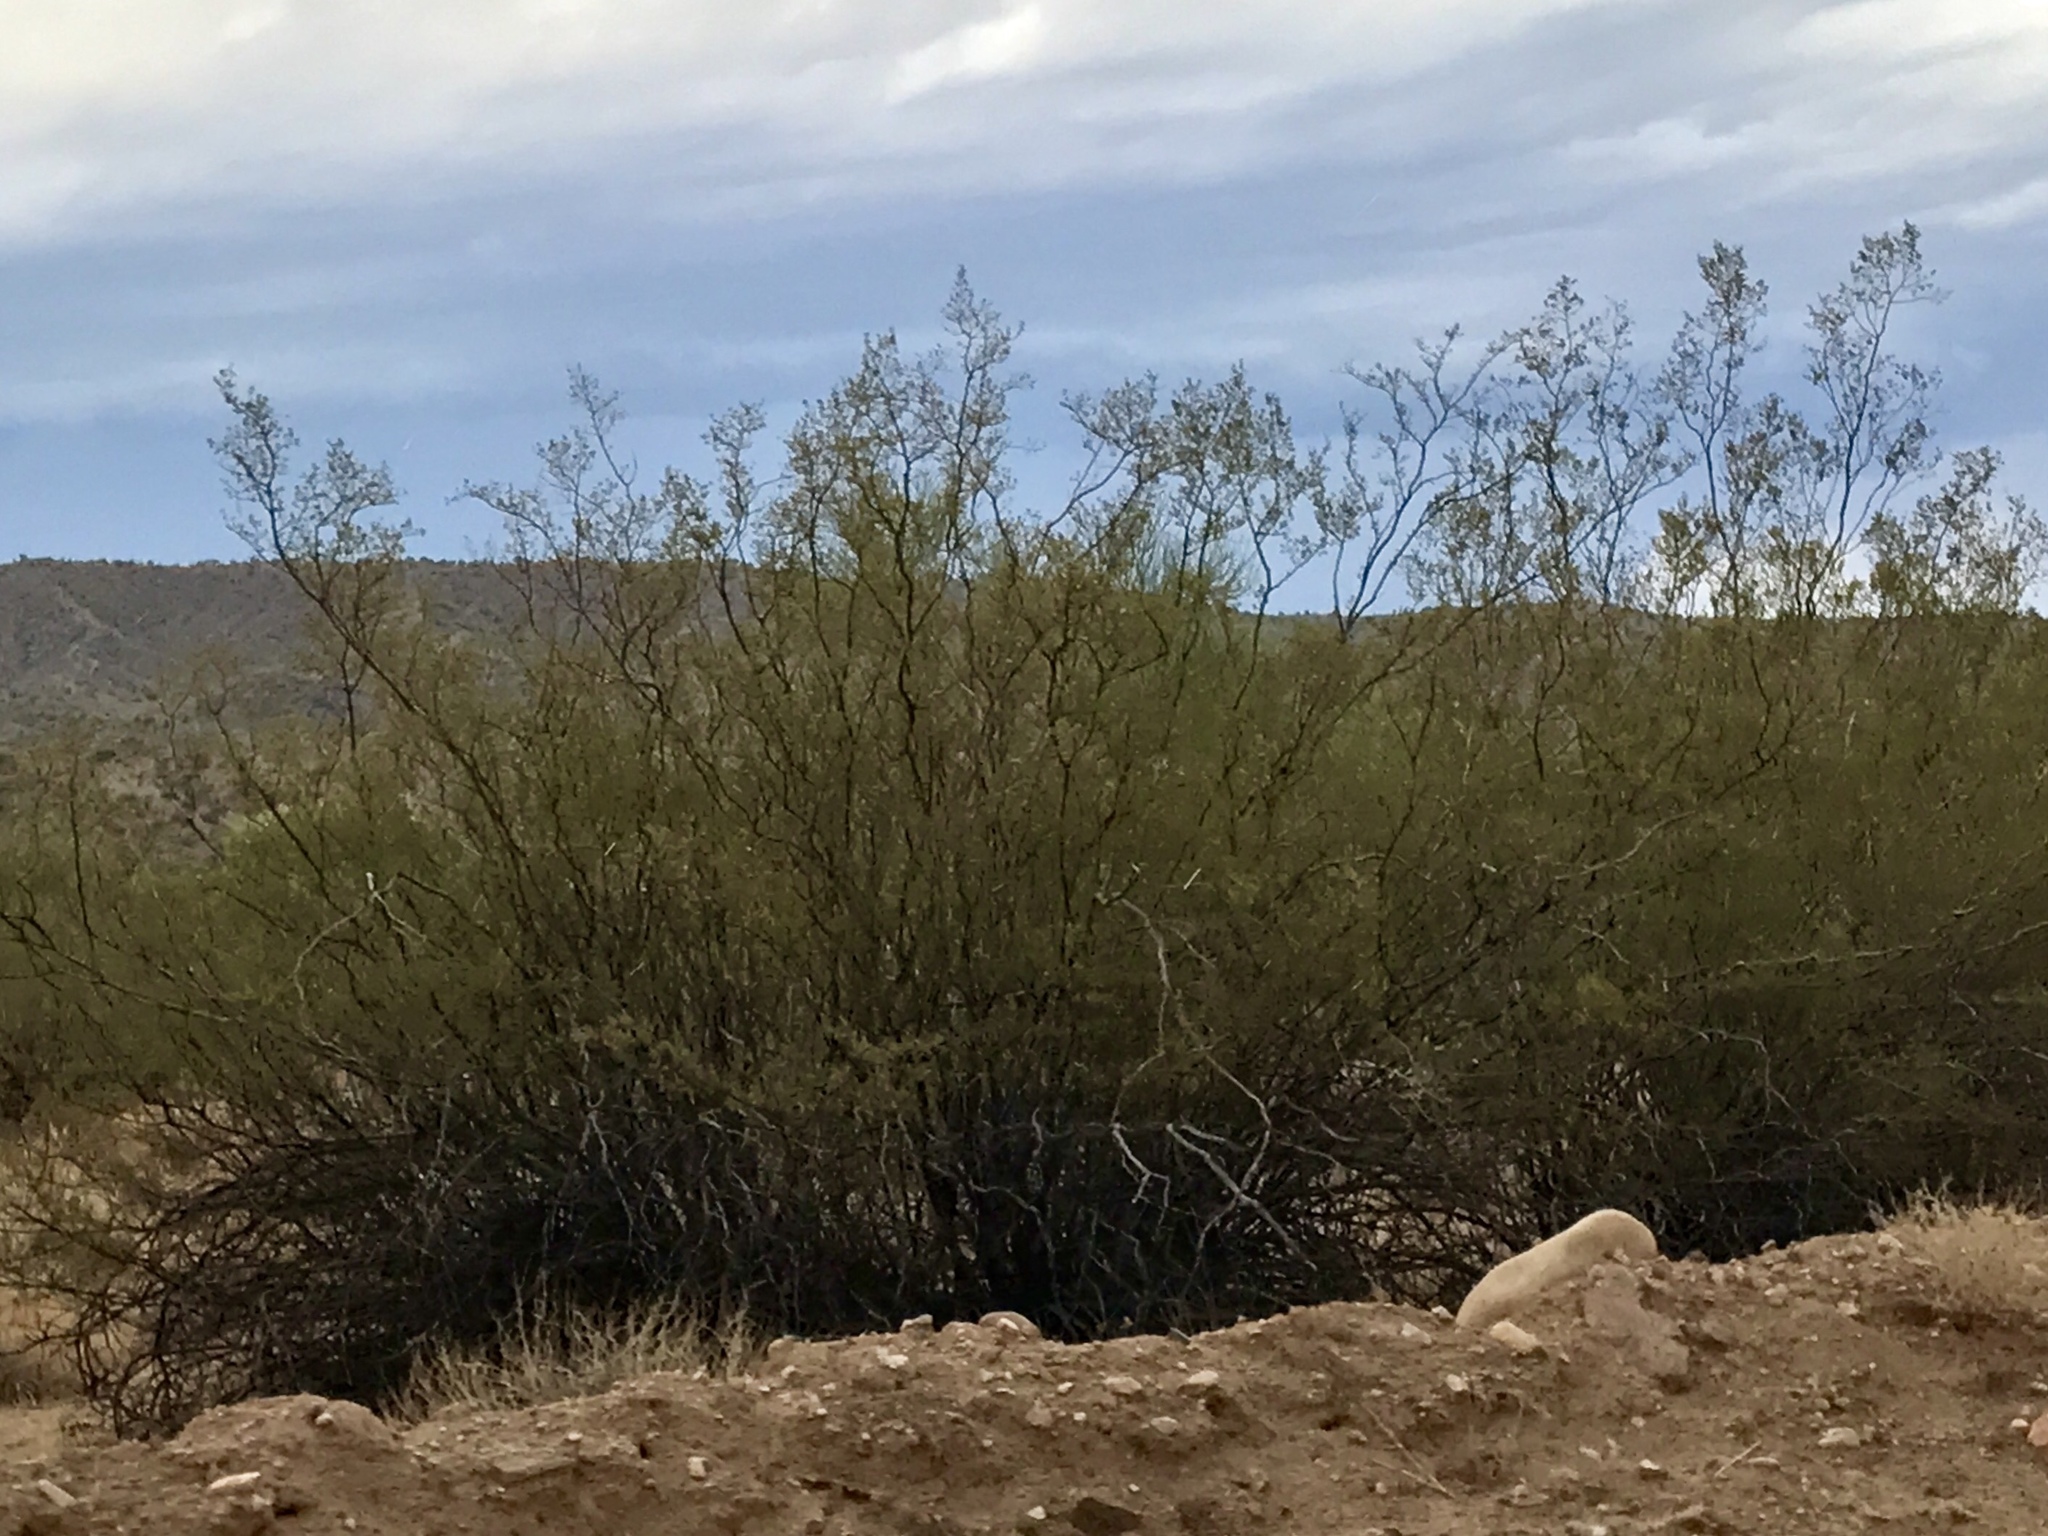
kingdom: Plantae
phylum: Tracheophyta
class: Magnoliopsida
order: Zygophyllales
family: Zygophyllaceae
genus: Larrea
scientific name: Larrea tridentata
